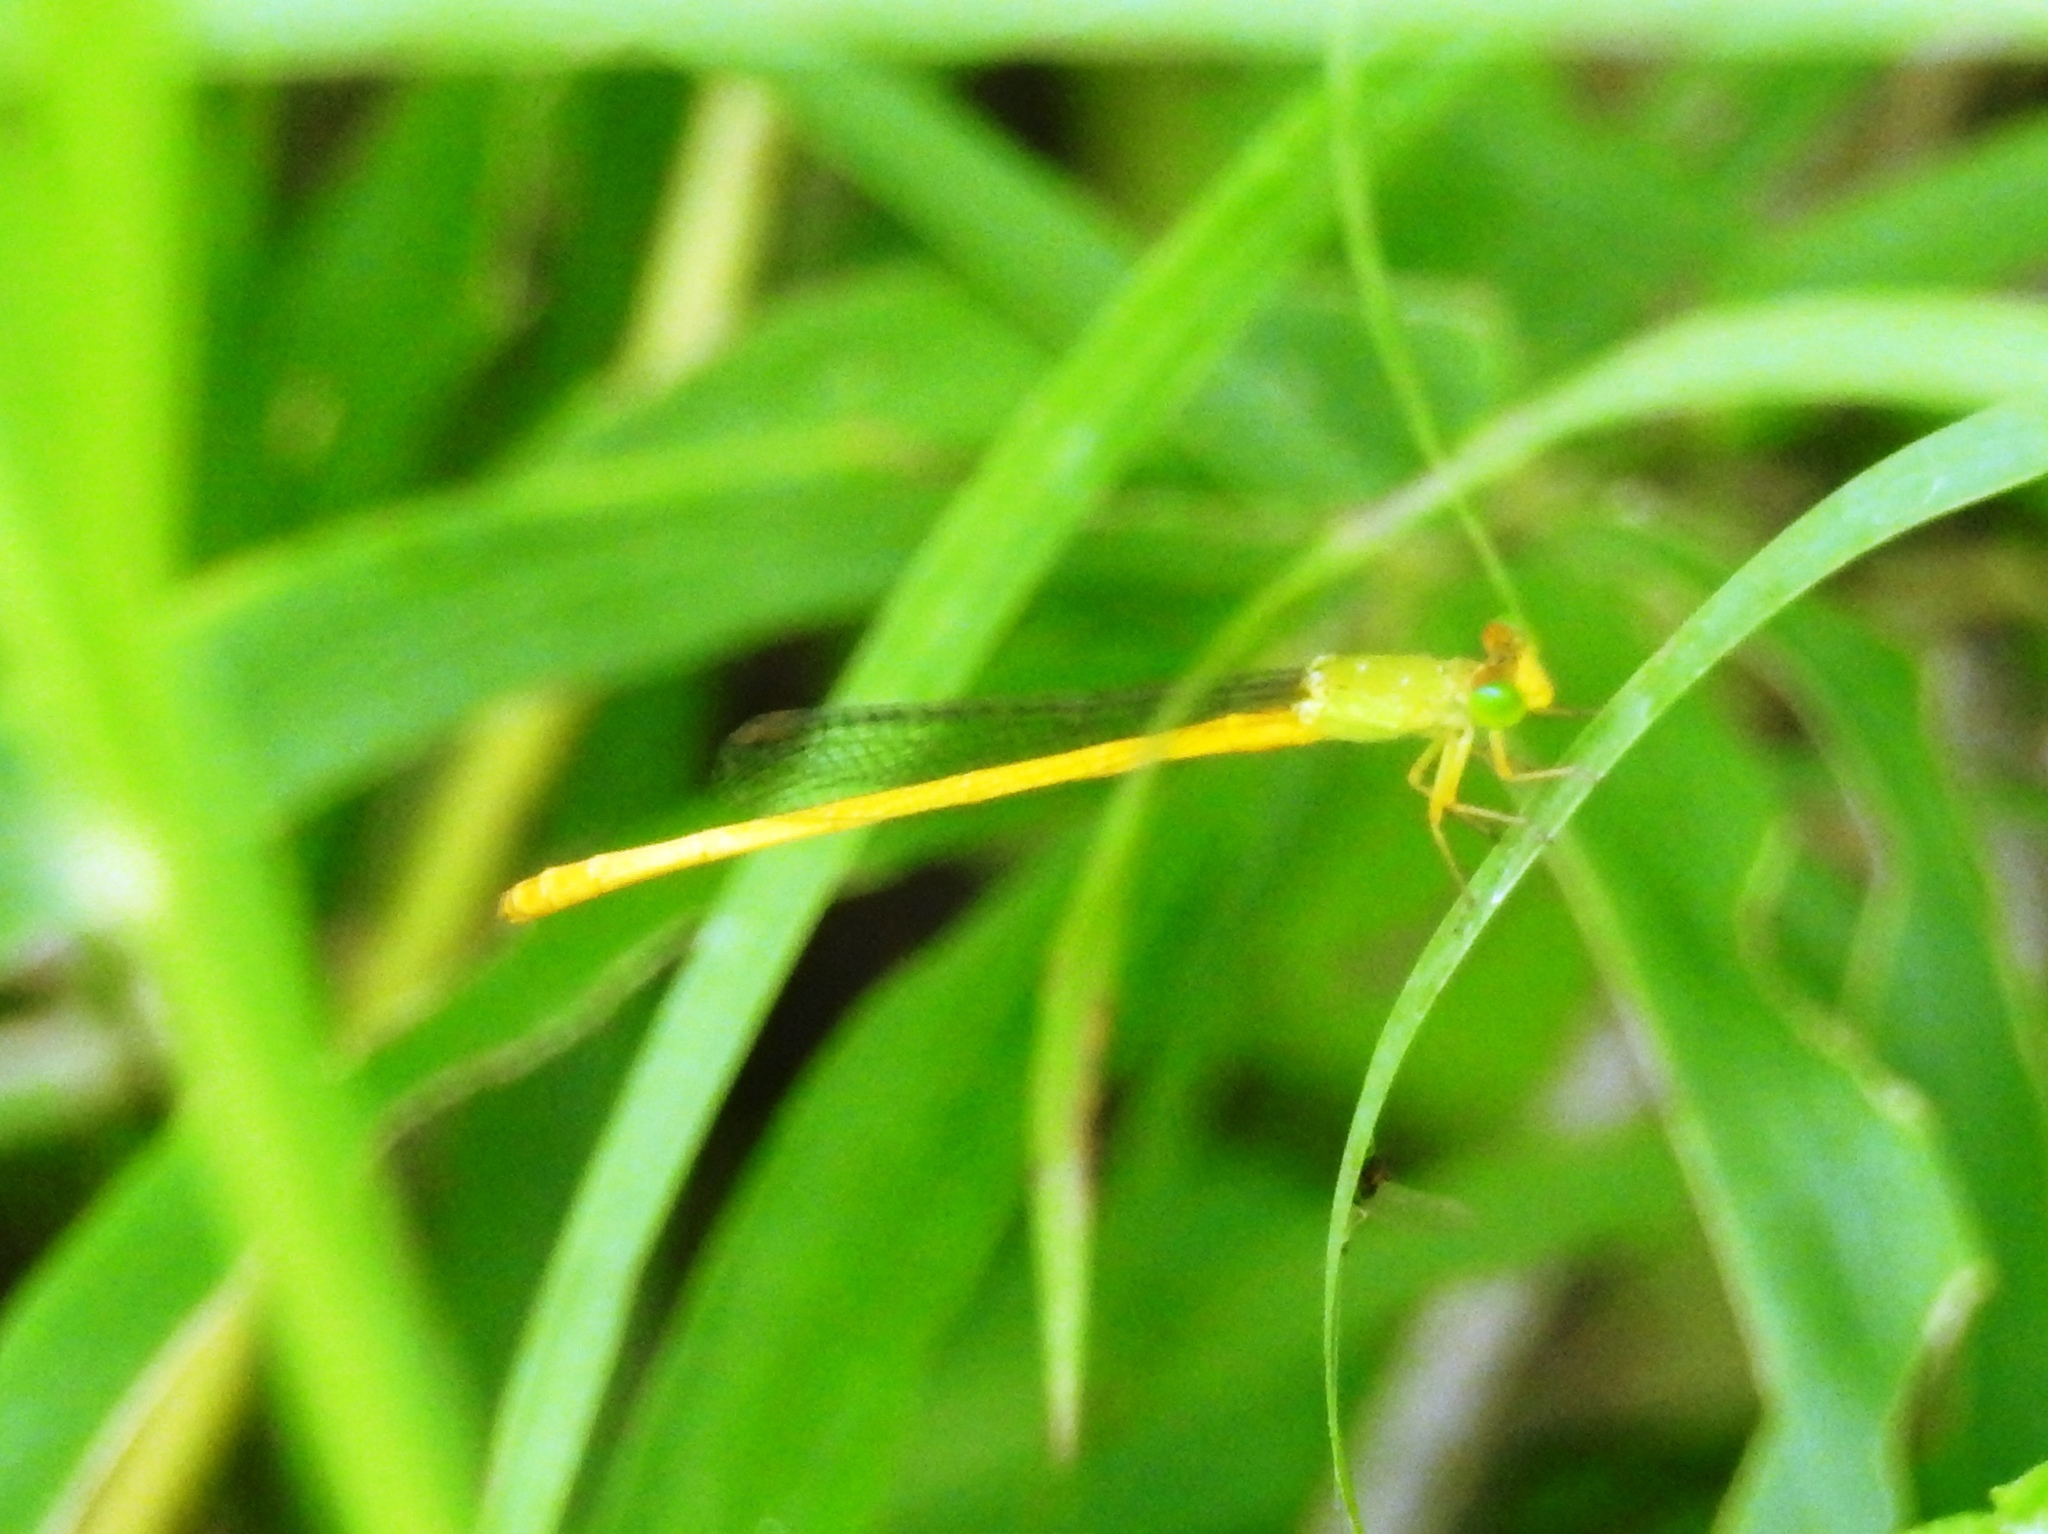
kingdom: Animalia
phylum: Arthropoda
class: Insecta
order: Odonata
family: Coenagrionidae
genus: Ceriagrion
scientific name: Ceriagrion coromandelianum
